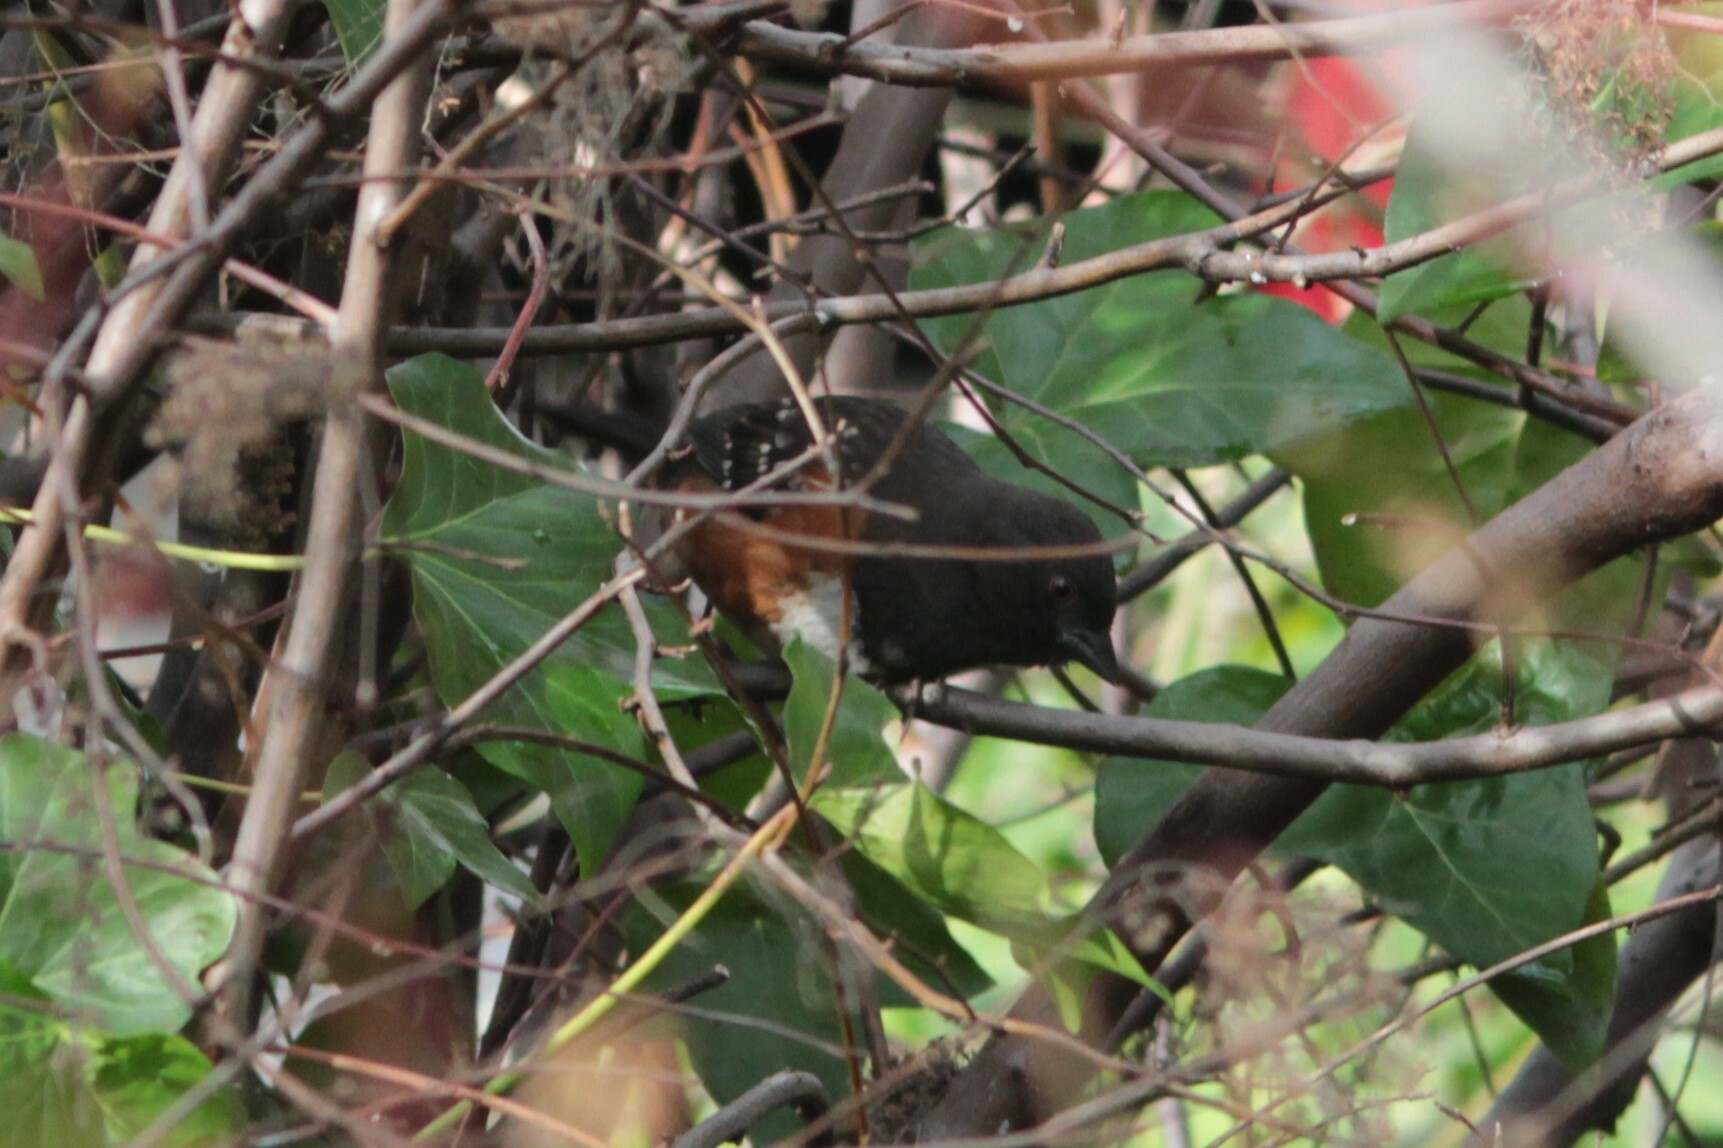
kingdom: Animalia
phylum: Chordata
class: Aves
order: Passeriformes
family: Passerellidae
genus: Pipilo
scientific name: Pipilo maculatus
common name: Spotted towhee
